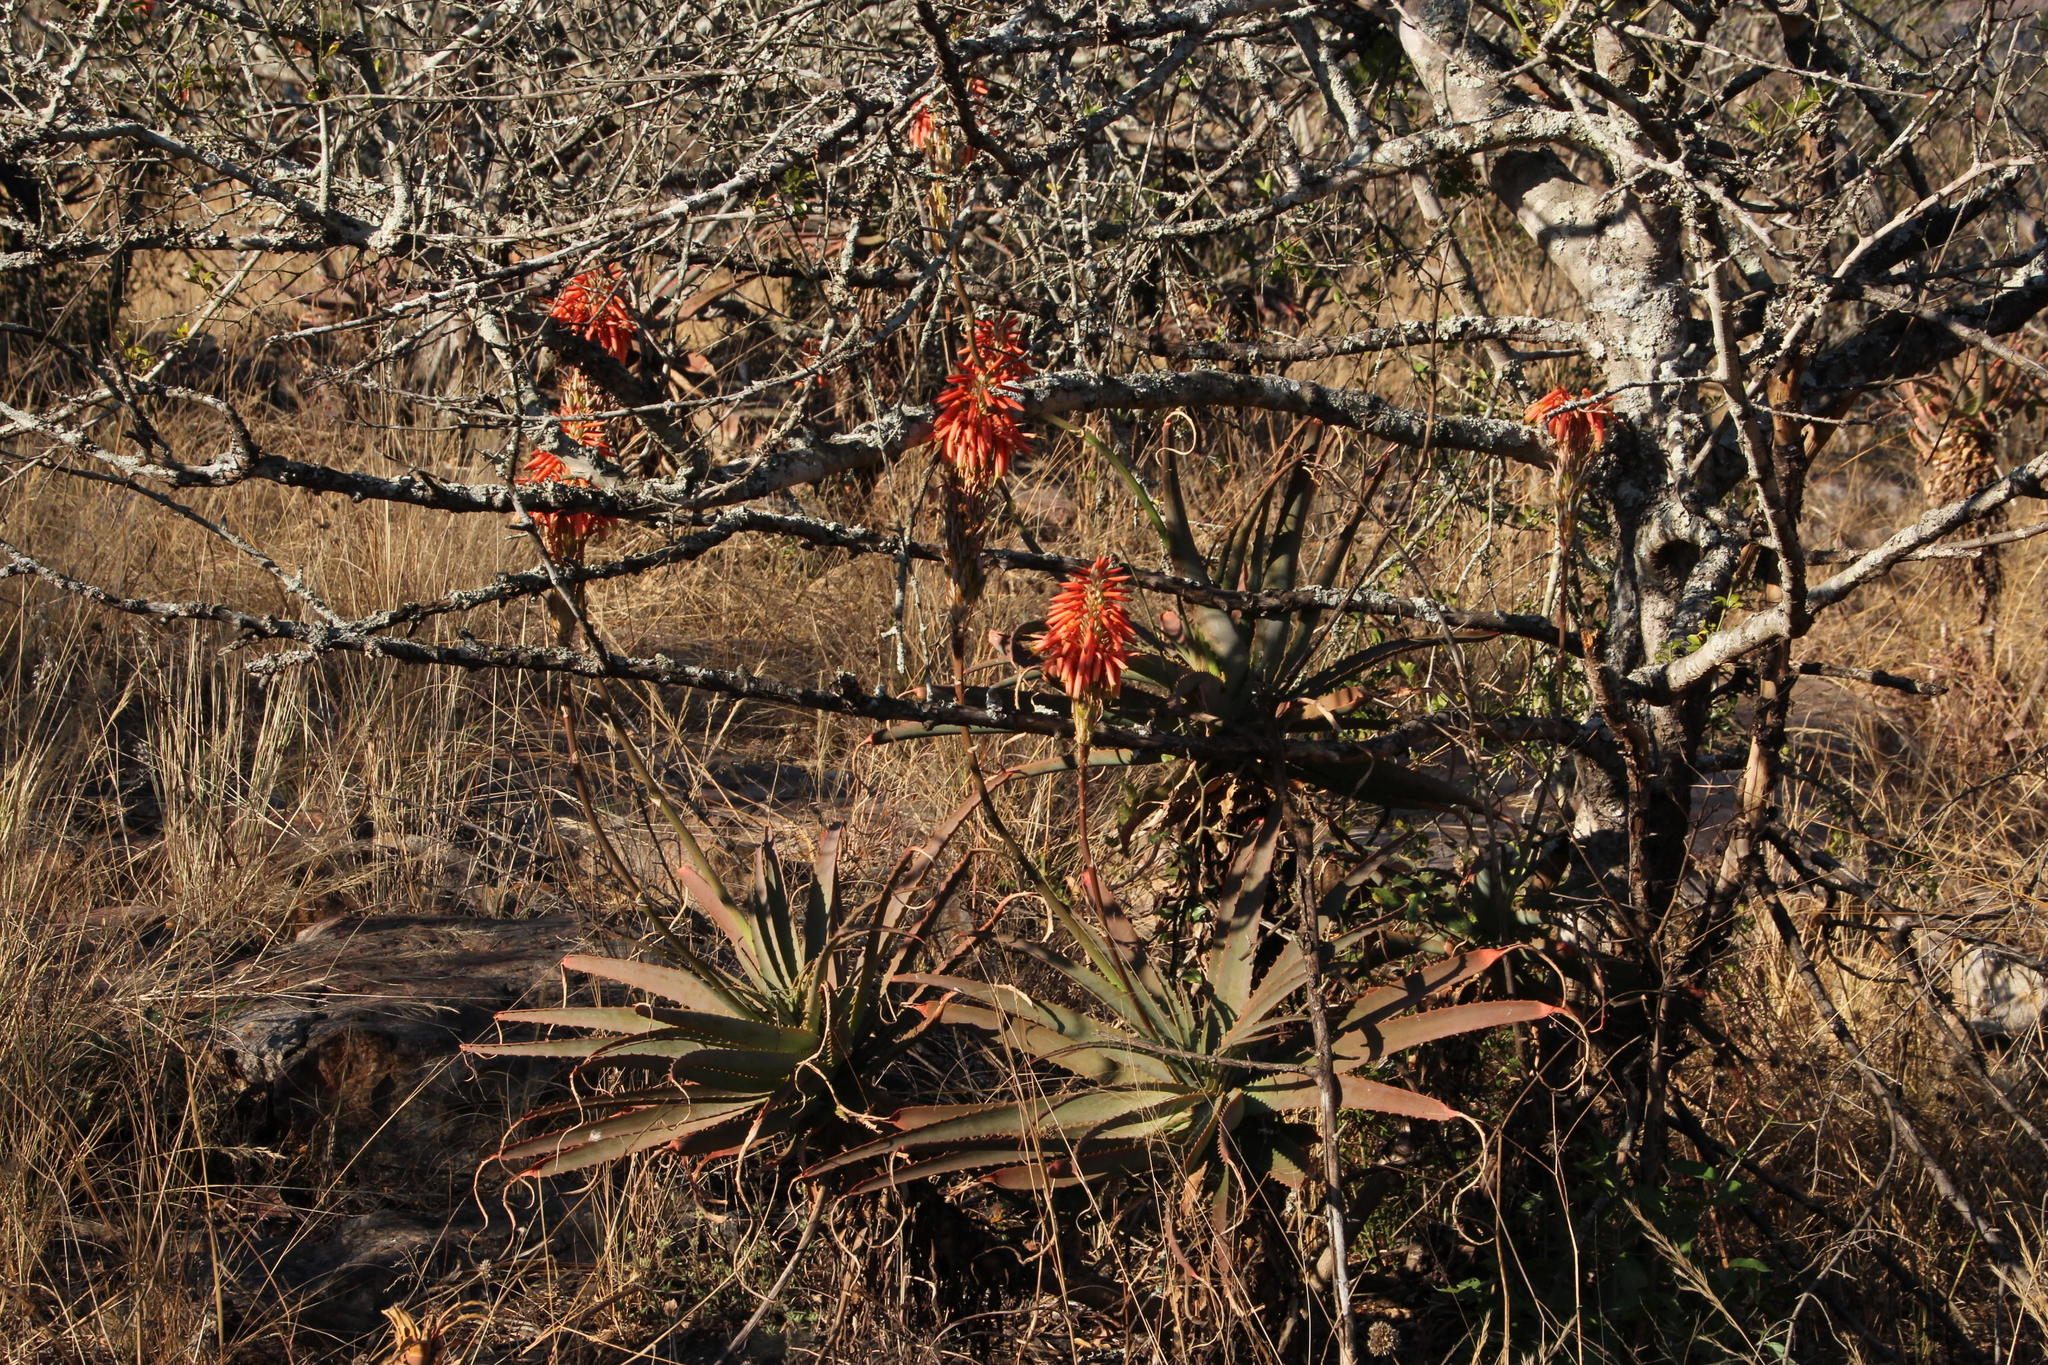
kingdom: Plantae
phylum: Tracheophyta
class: Liliopsida
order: Asparagales
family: Asphodelaceae
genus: Aloe
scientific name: Aloe arborescens
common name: Candelabra aloe
